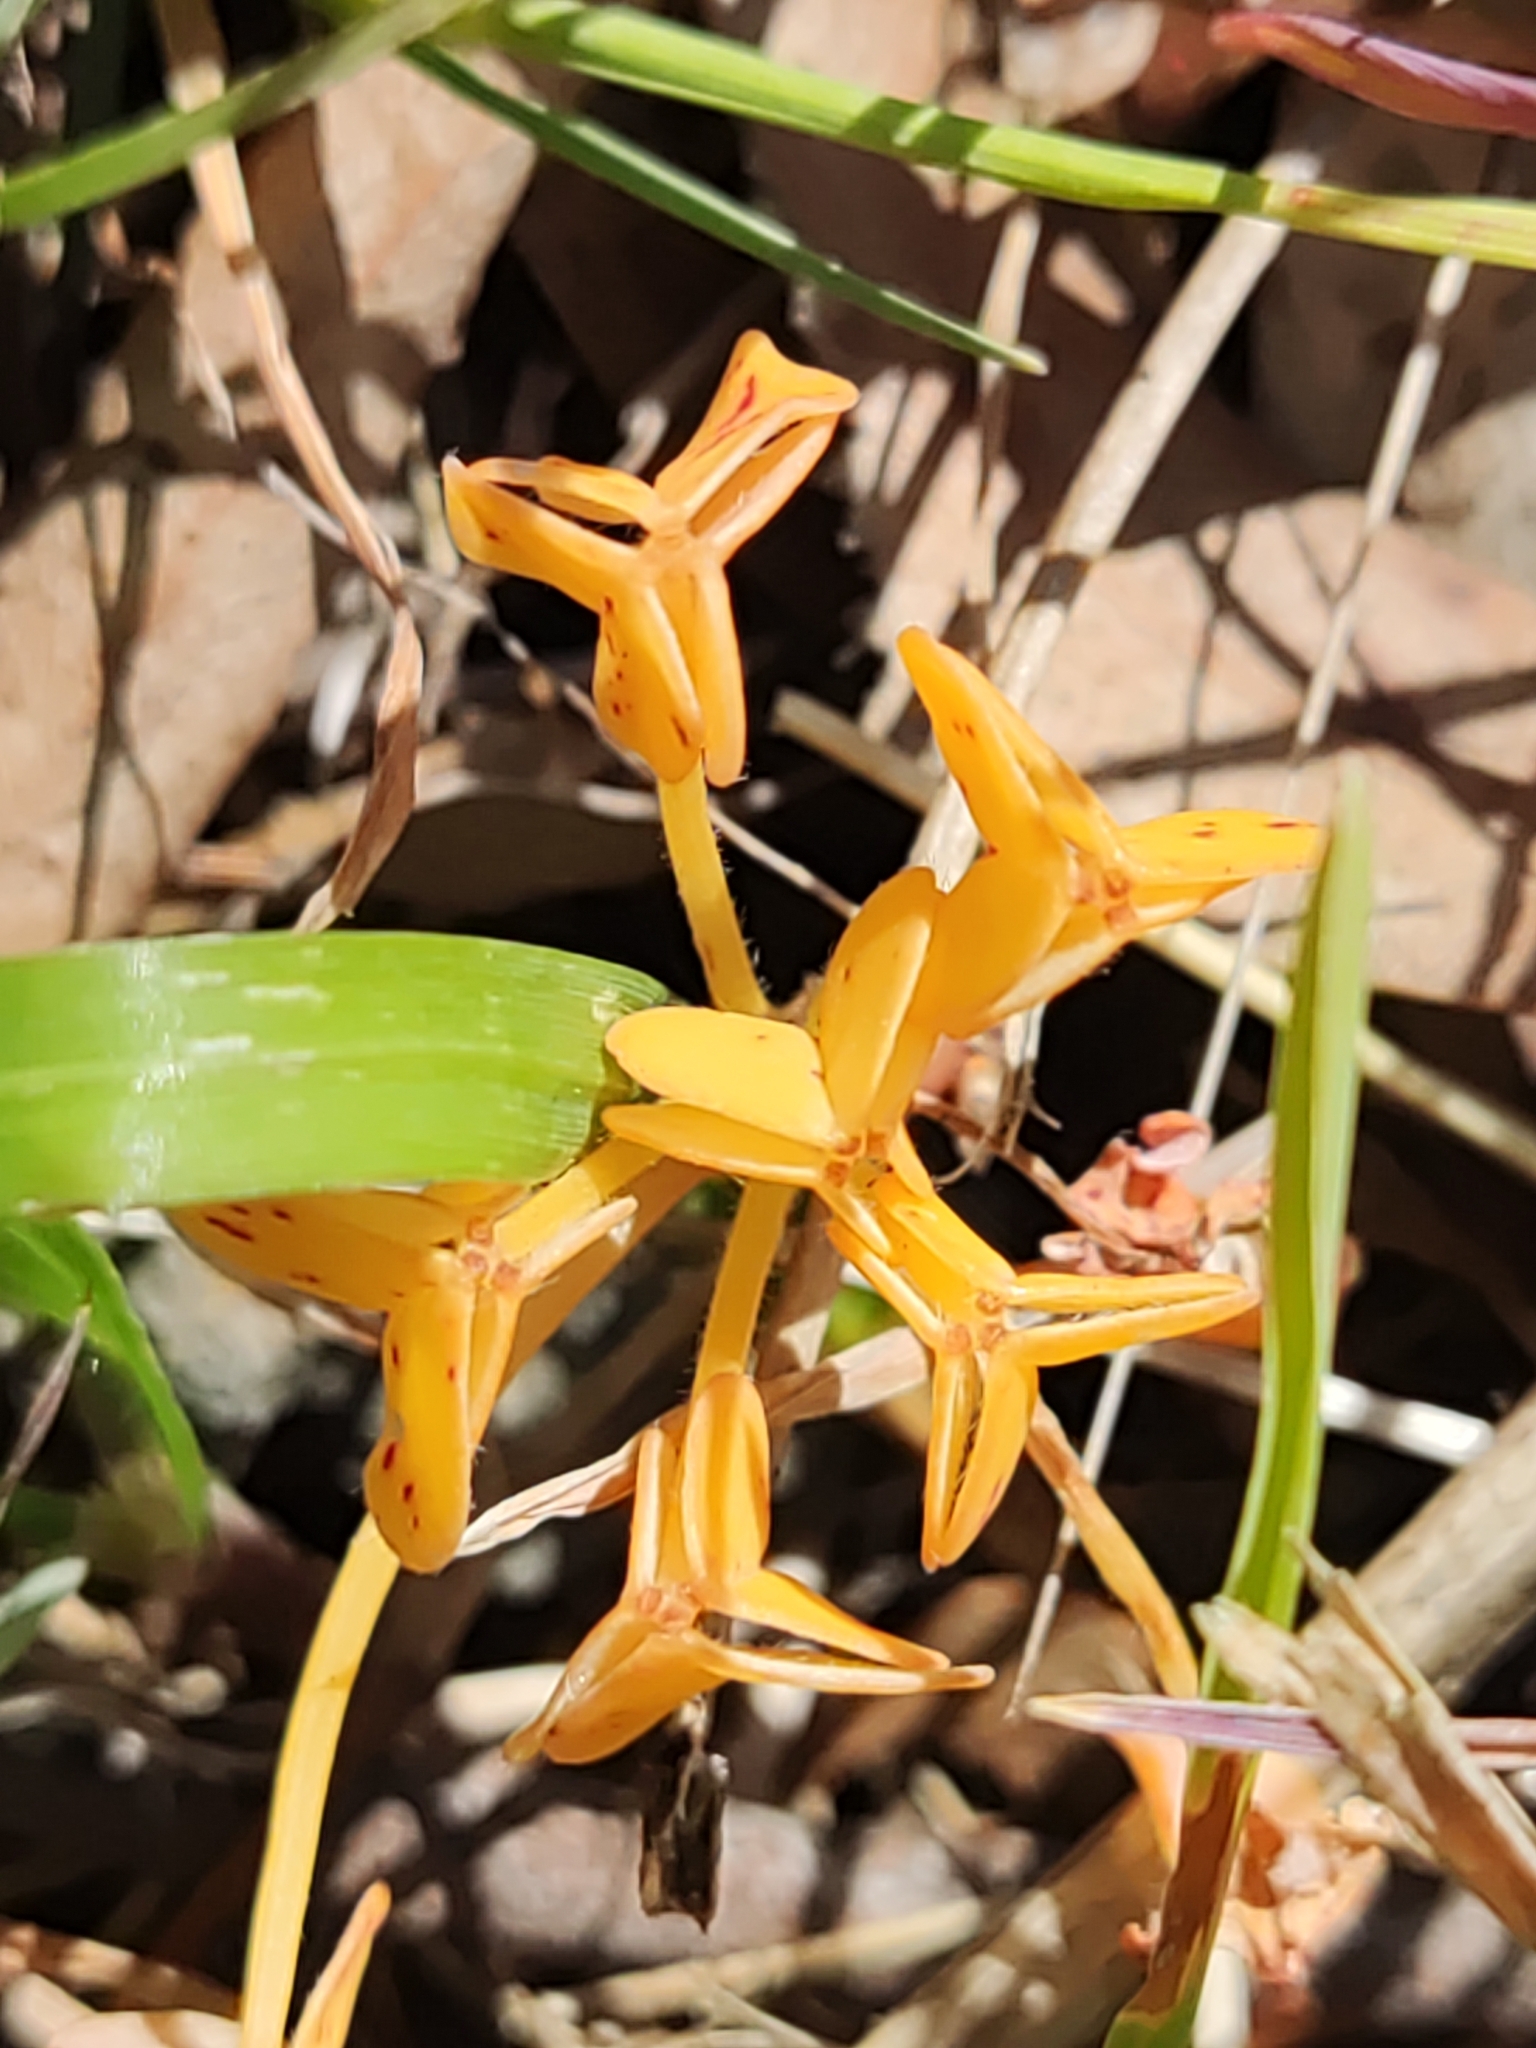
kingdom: Plantae
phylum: Tracheophyta
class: Magnoliopsida
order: Oxalidales
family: Oxalidaceae
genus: Oxalis
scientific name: Oxalis pes-caprae
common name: Bermuda-buttercup
